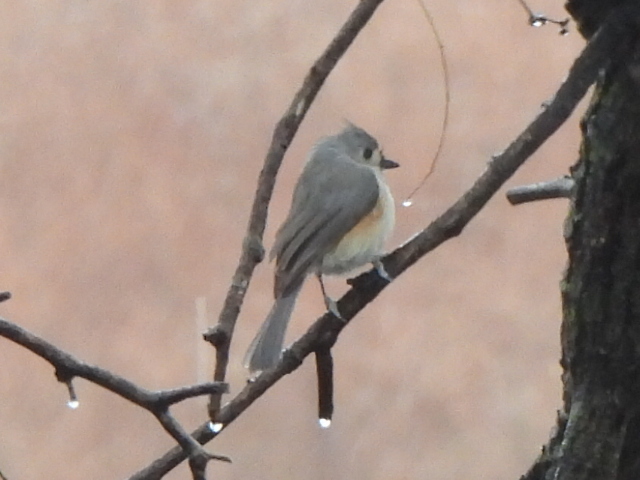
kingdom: Animalia
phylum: Chordata
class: Aves
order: Passeriformes
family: Paridae
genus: Baeolophus
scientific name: Baeolophus bicolor
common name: Tufted titmouse
